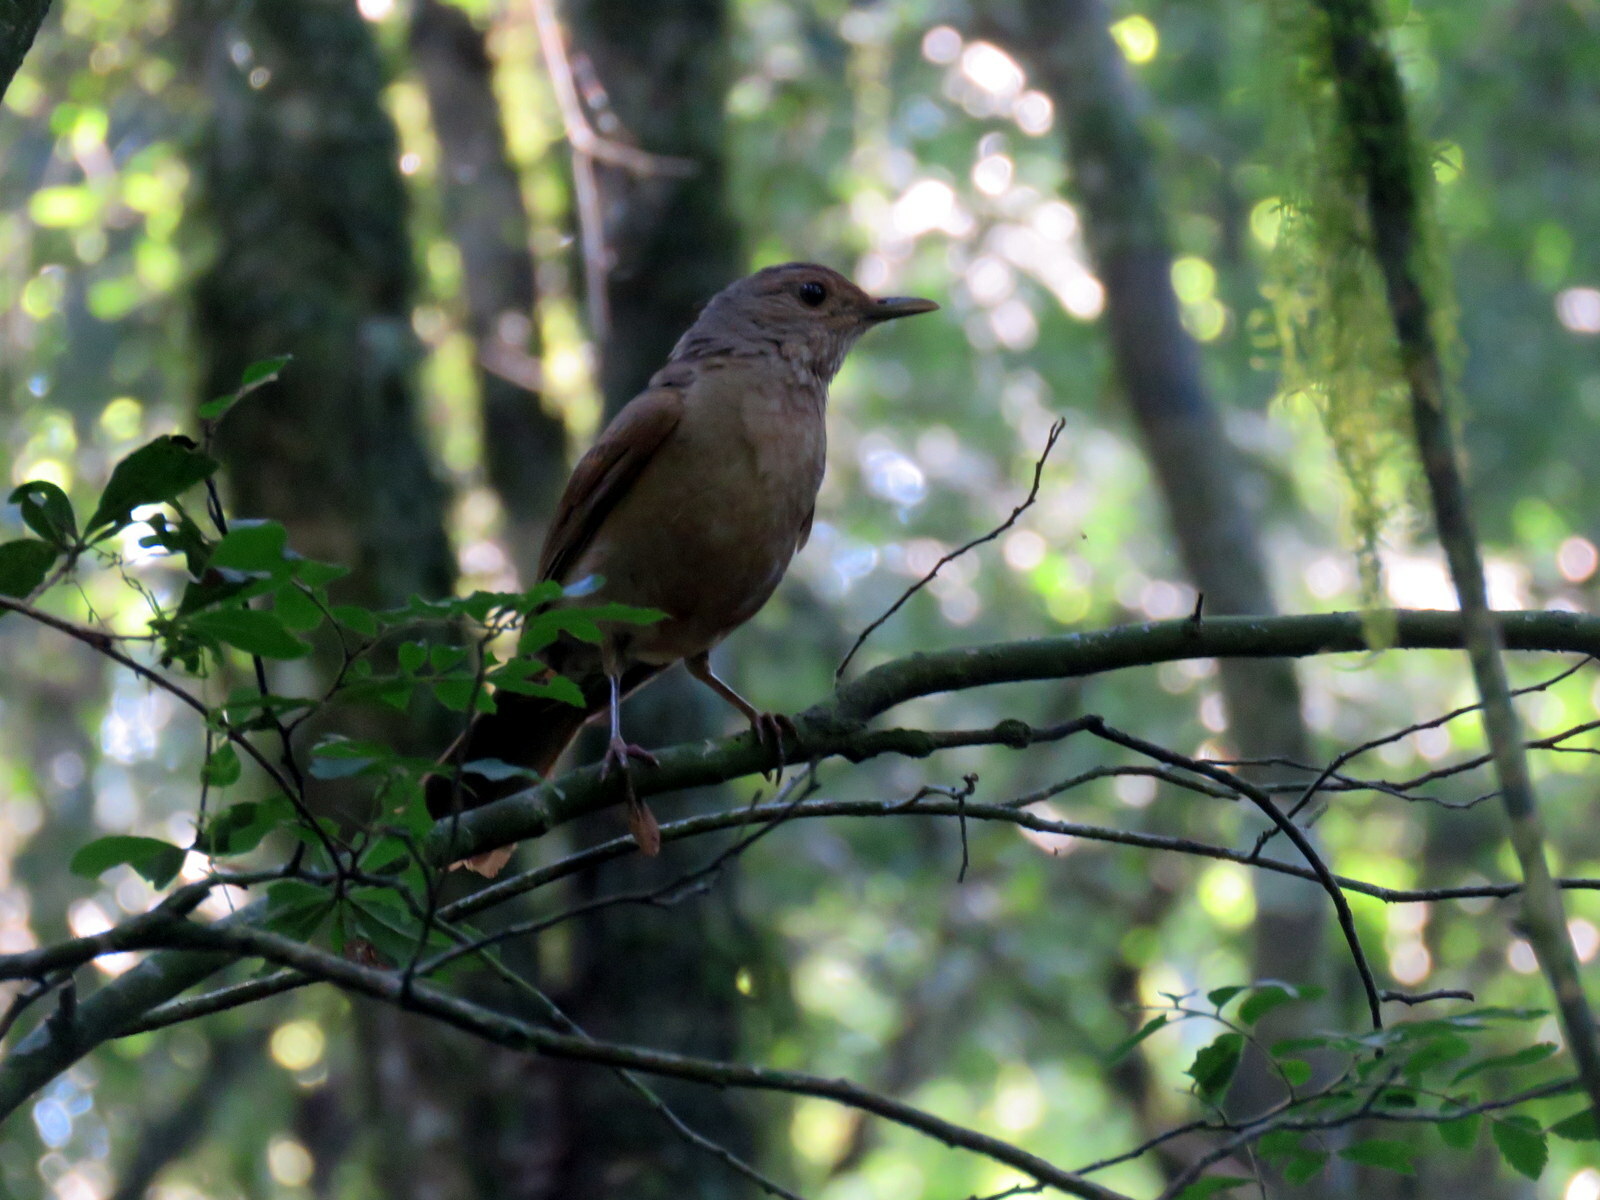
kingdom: Animalia
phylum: Chordata
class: Aves
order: Passeriformes
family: Turdidae
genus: Turdus
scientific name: Turdus leucomelas
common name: Pale-breasted thrush
